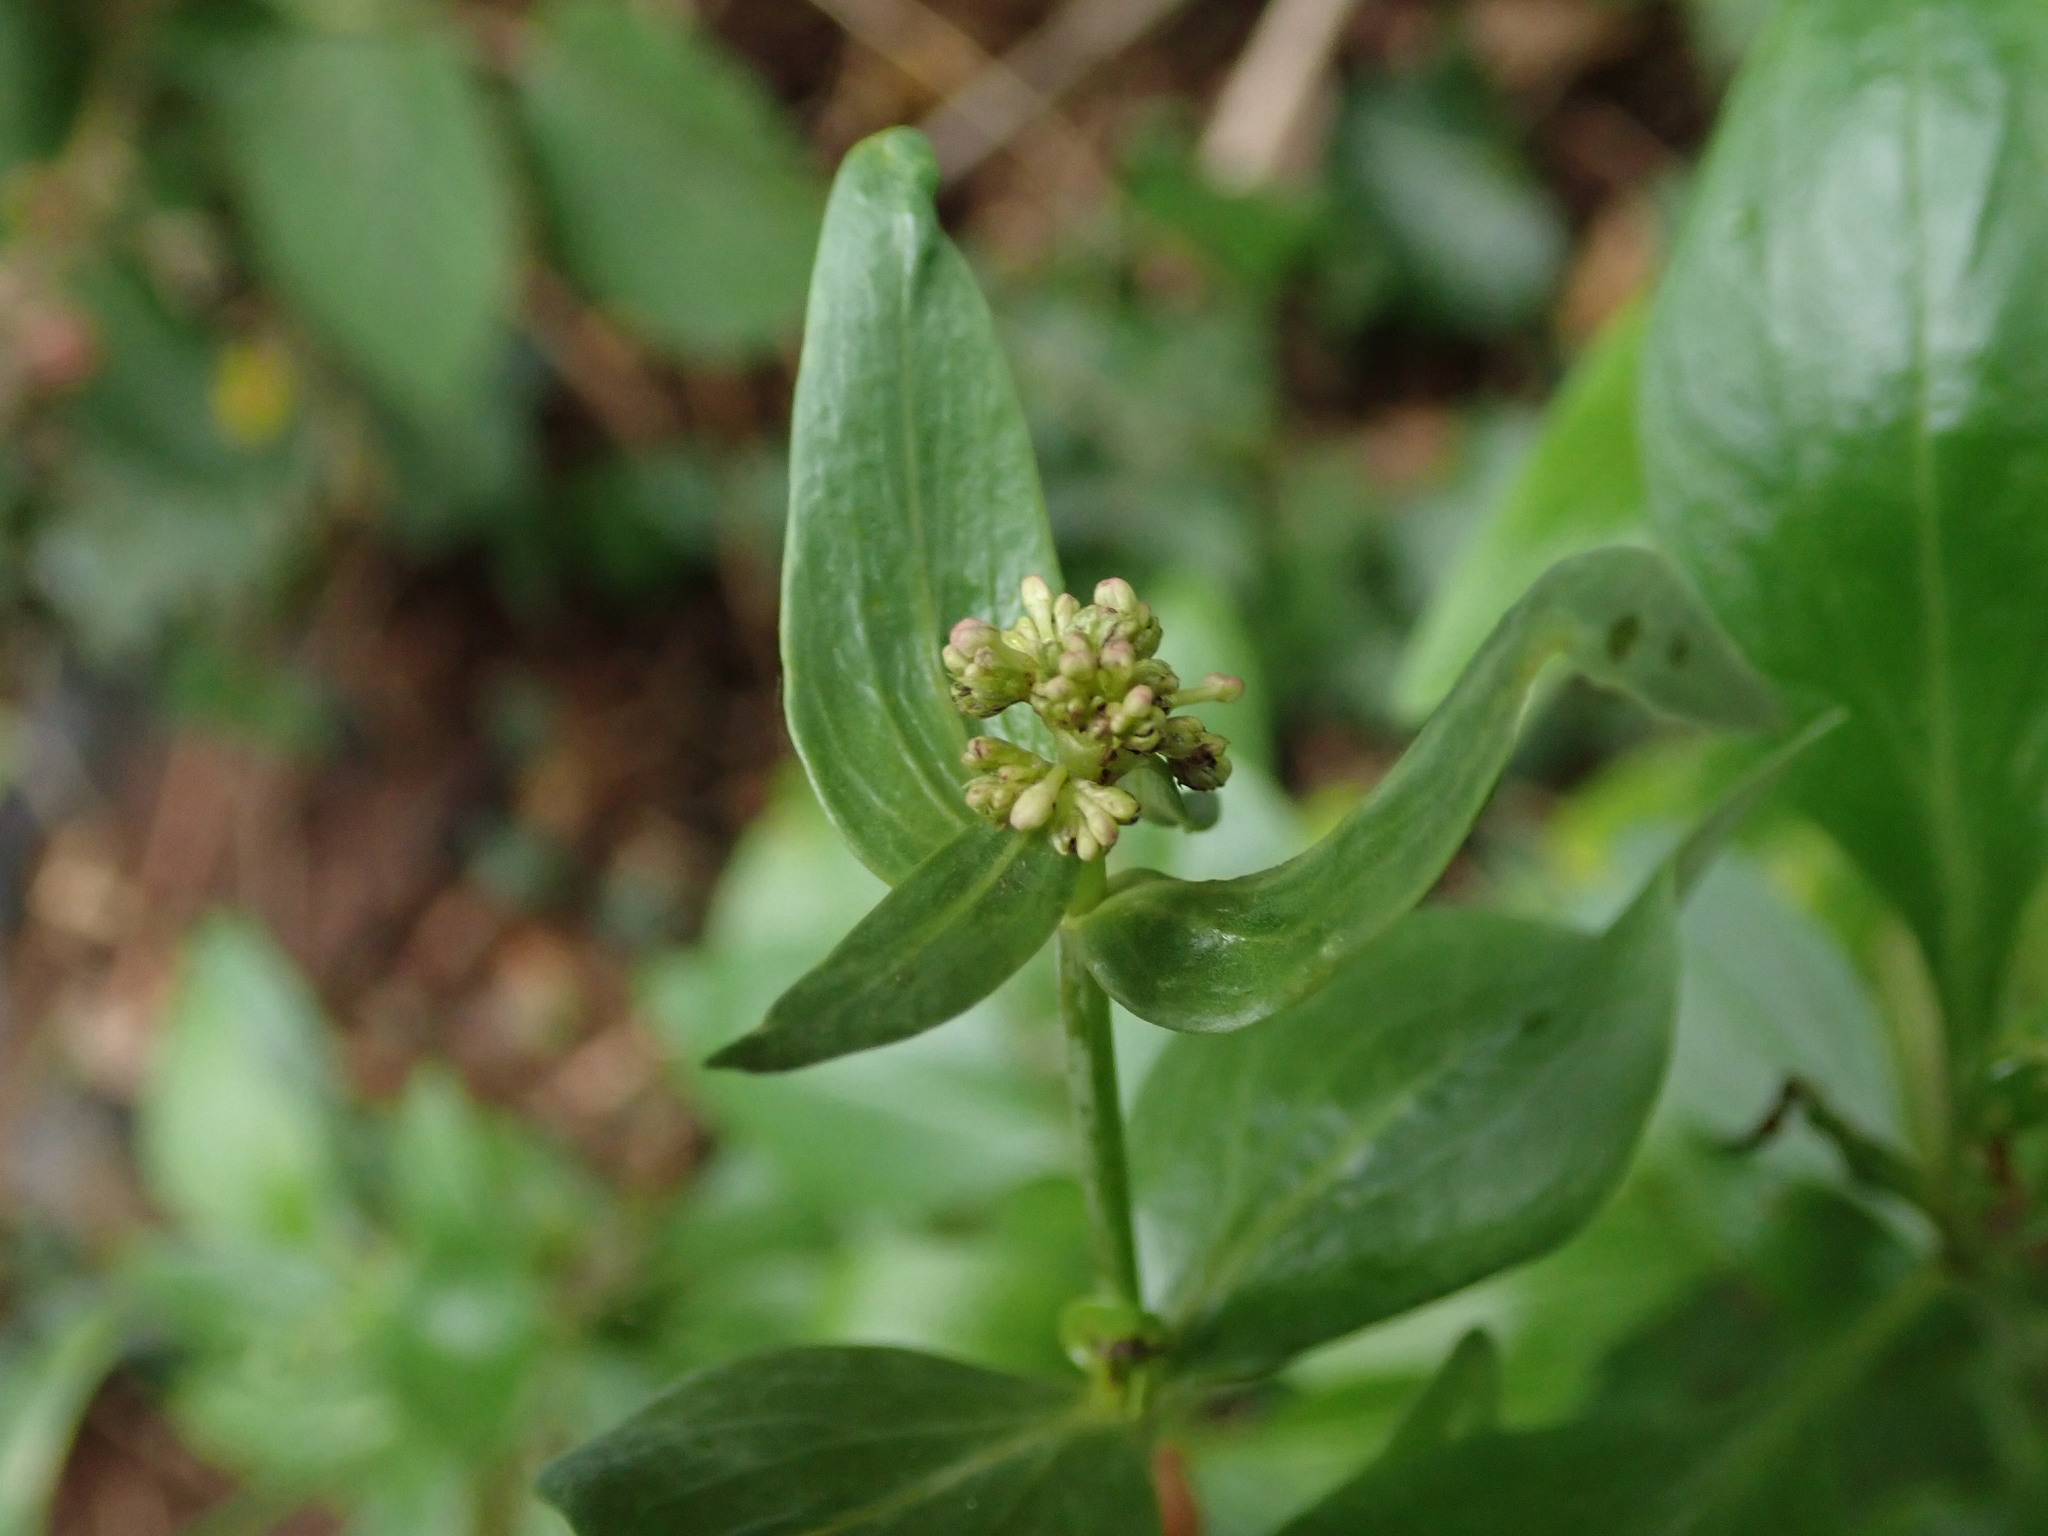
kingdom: Plantae
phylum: Tracheophyta
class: Magnoliopsida
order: Dipsacales
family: Caprifoliaceae
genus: Centranthus
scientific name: Centranthus ruber
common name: Red valerian
